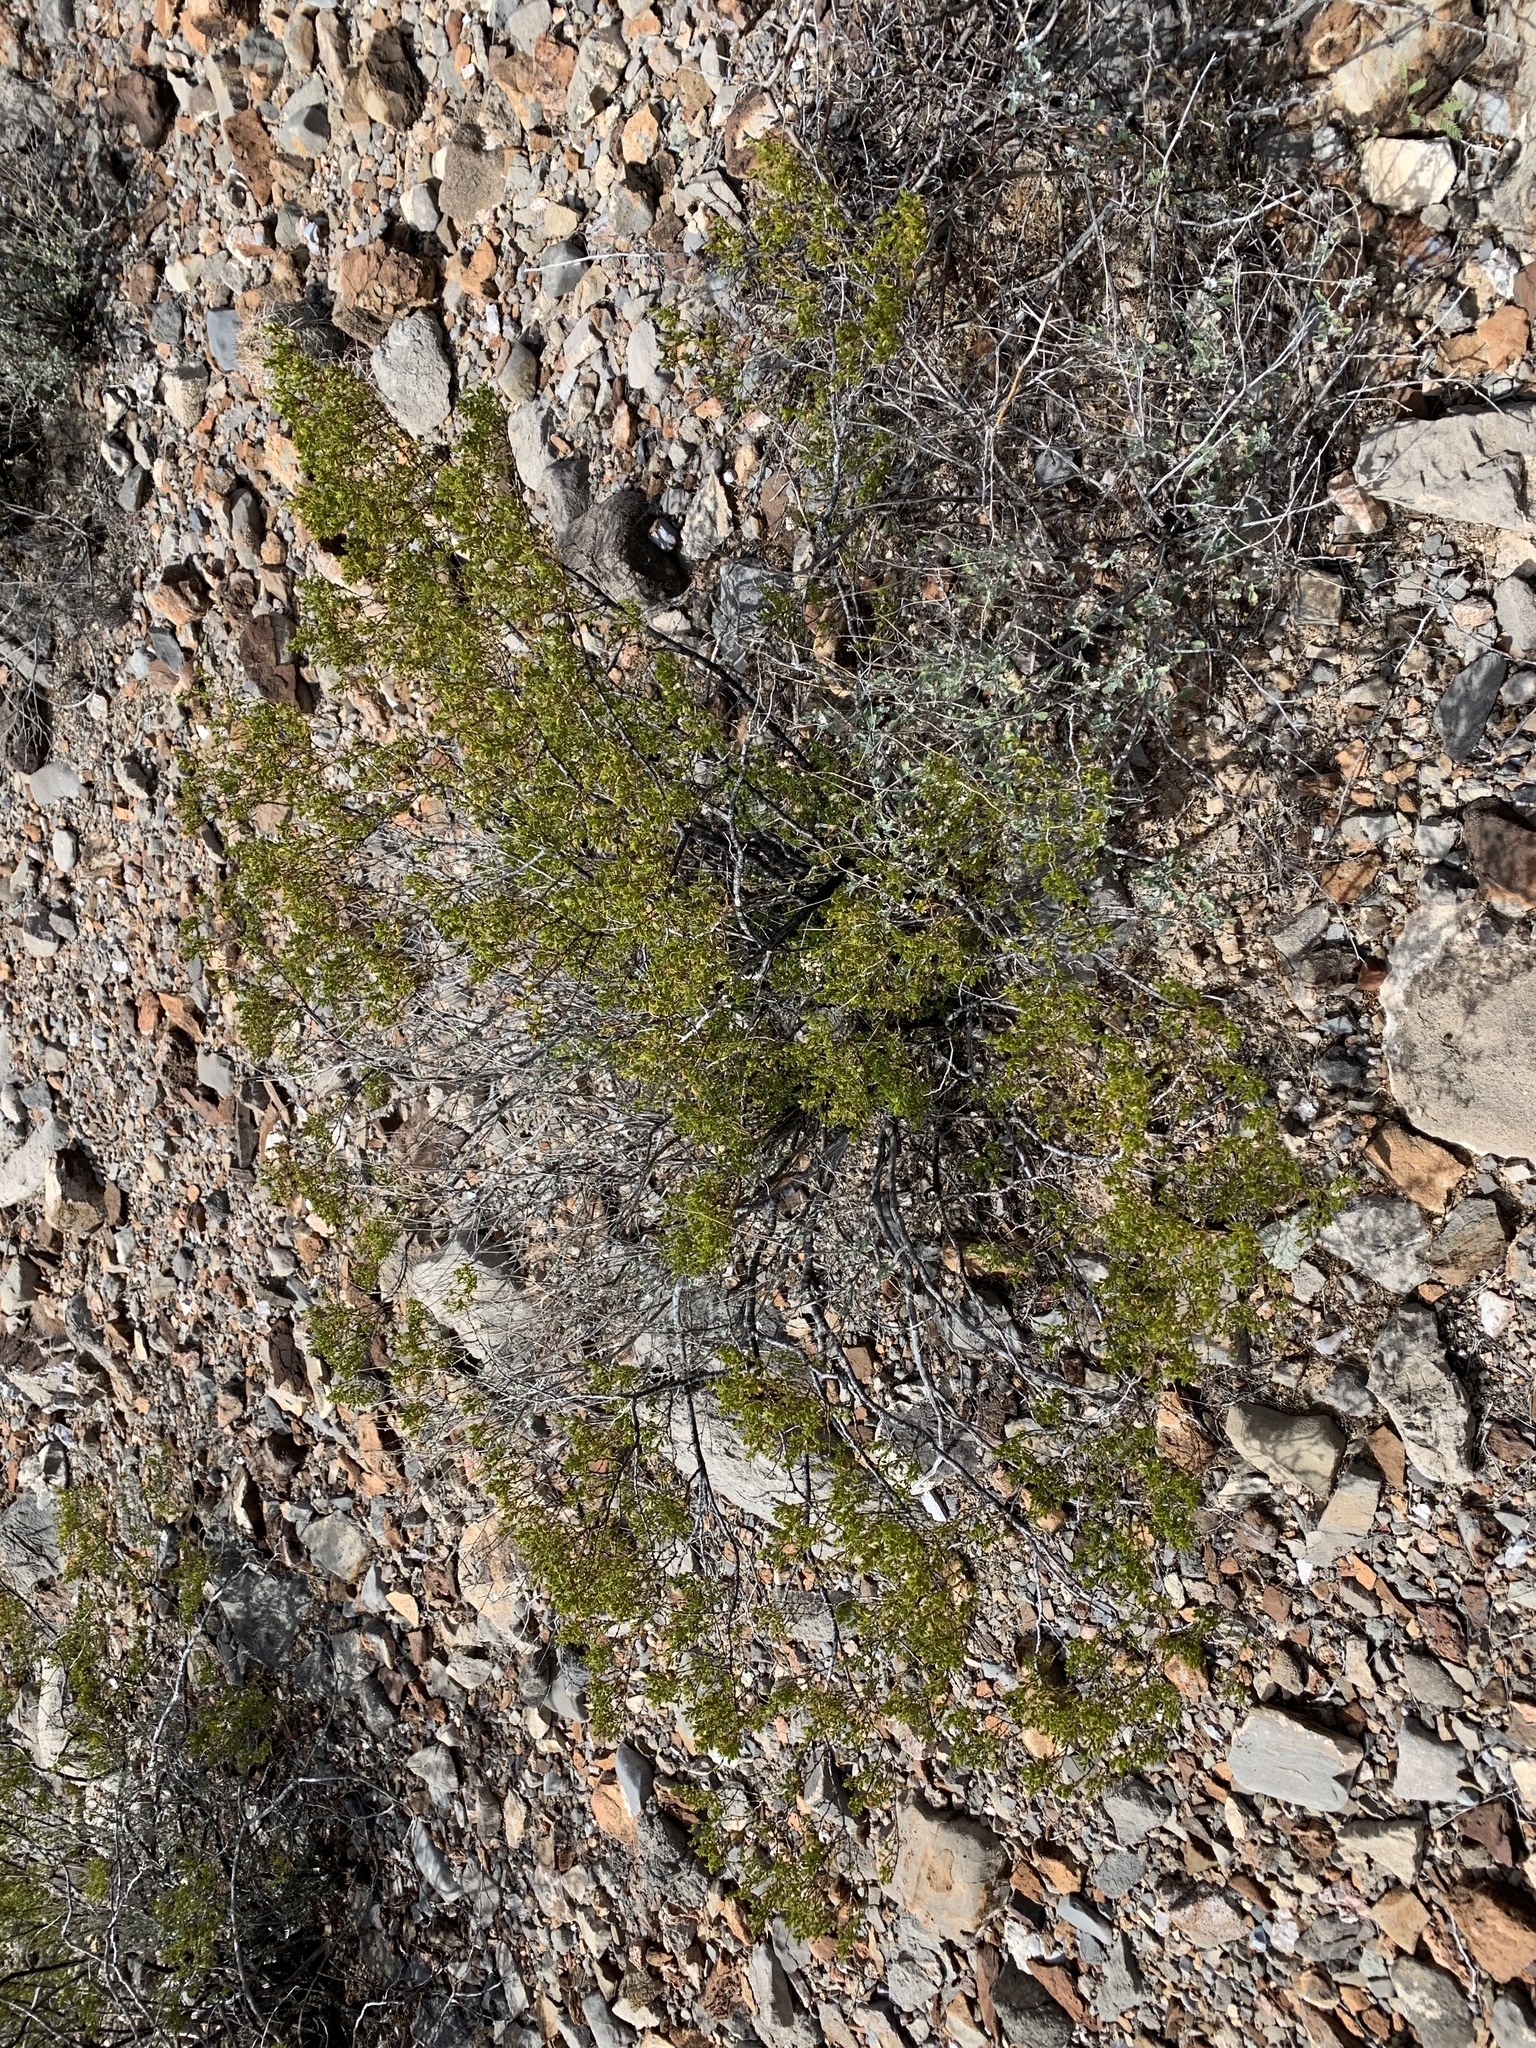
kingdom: Plantae
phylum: Tracheophyta
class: Magnoliopsida
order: Zygophyllales
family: Zygophyllaceae
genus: Larrea
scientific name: Larrea tridentata
